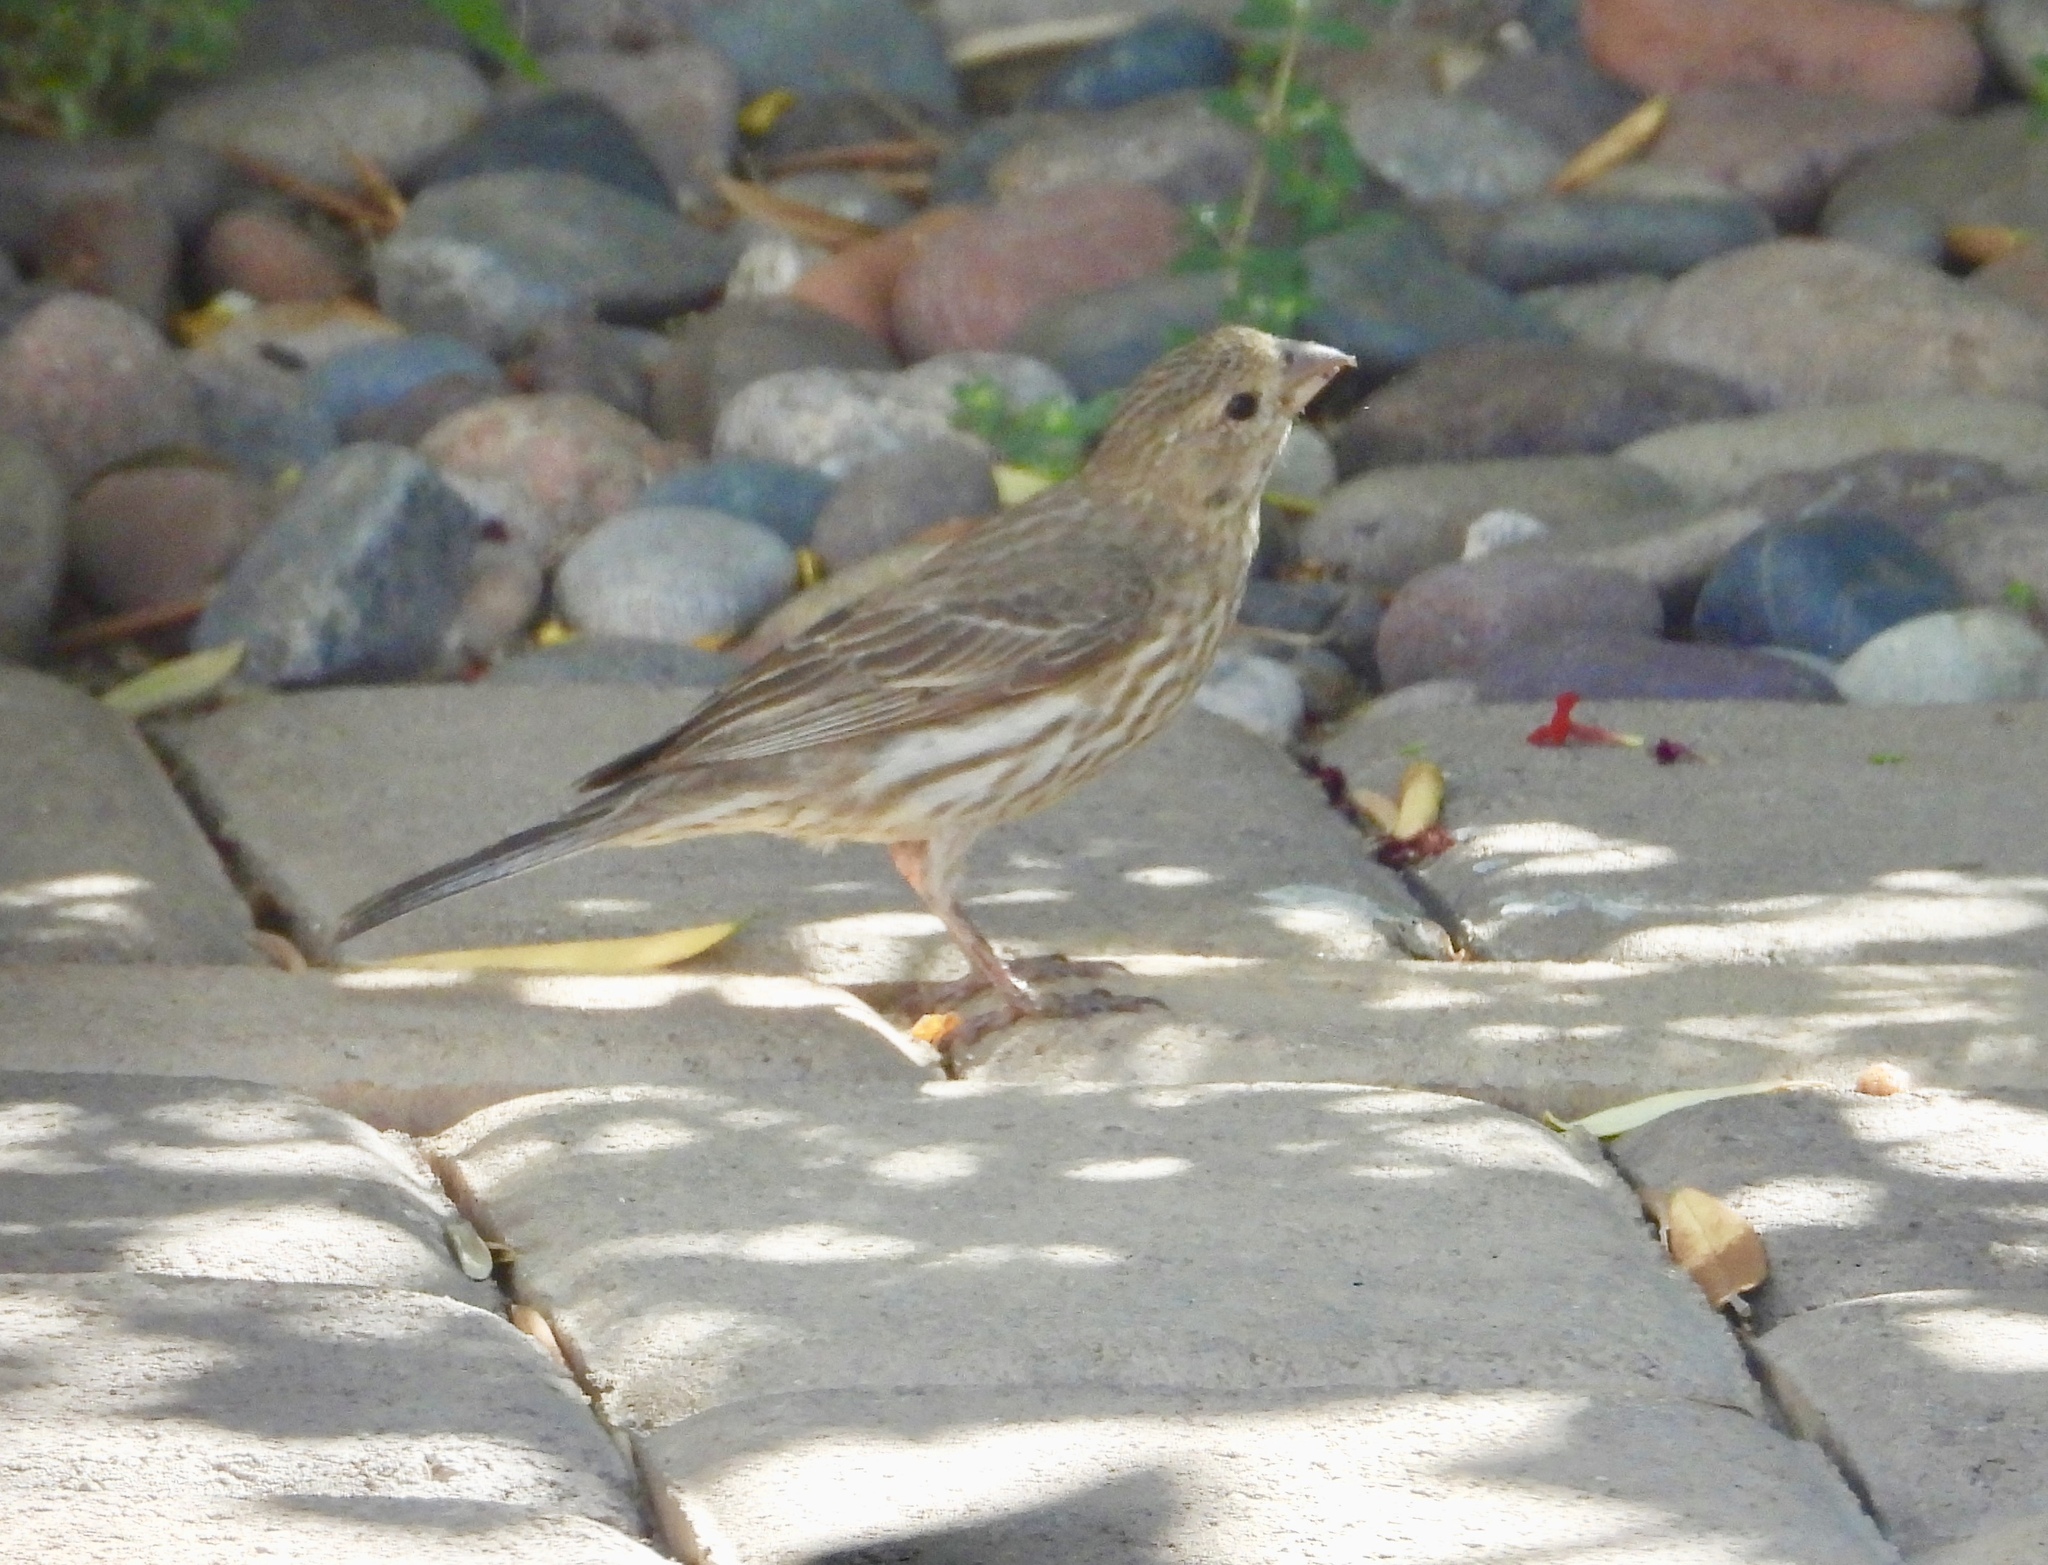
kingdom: Animalia
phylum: Chordata
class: Aves
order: Passeriformes
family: Fringillidae
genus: Haemorhous
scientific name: Haemorhous mexicanus
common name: House finch
